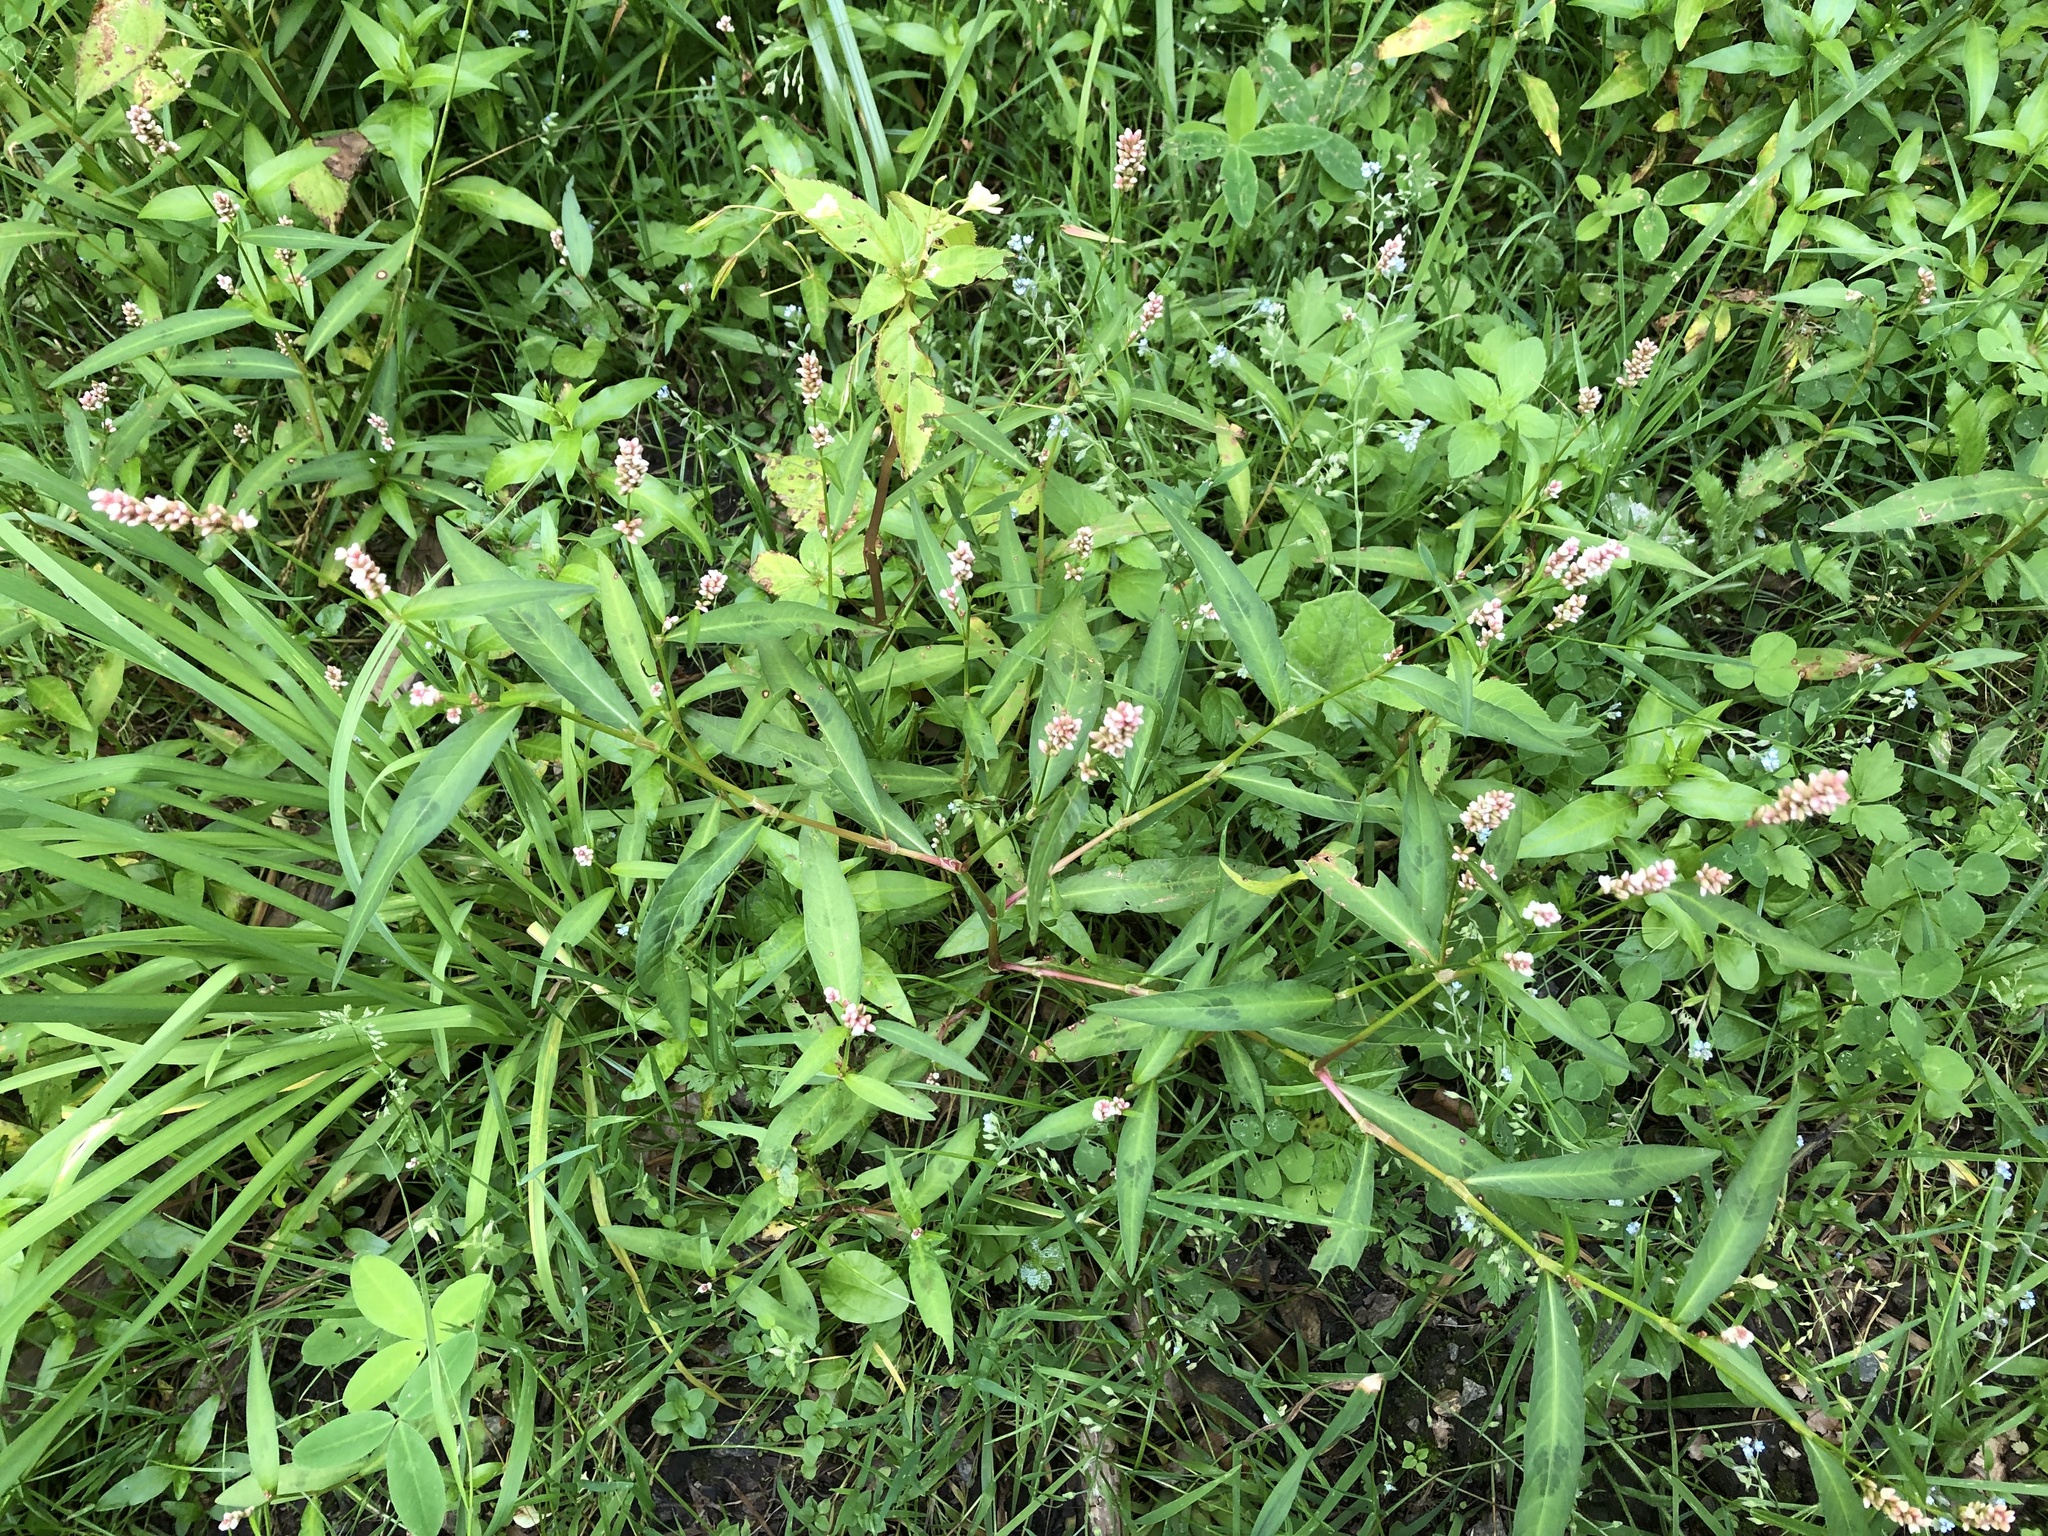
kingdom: Plantae
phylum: Tracheophyta
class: Magnoliopsida
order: Caryophyllales
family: Polygonaceae
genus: Persicaria
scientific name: Persicaria maculosa
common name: Redshank
